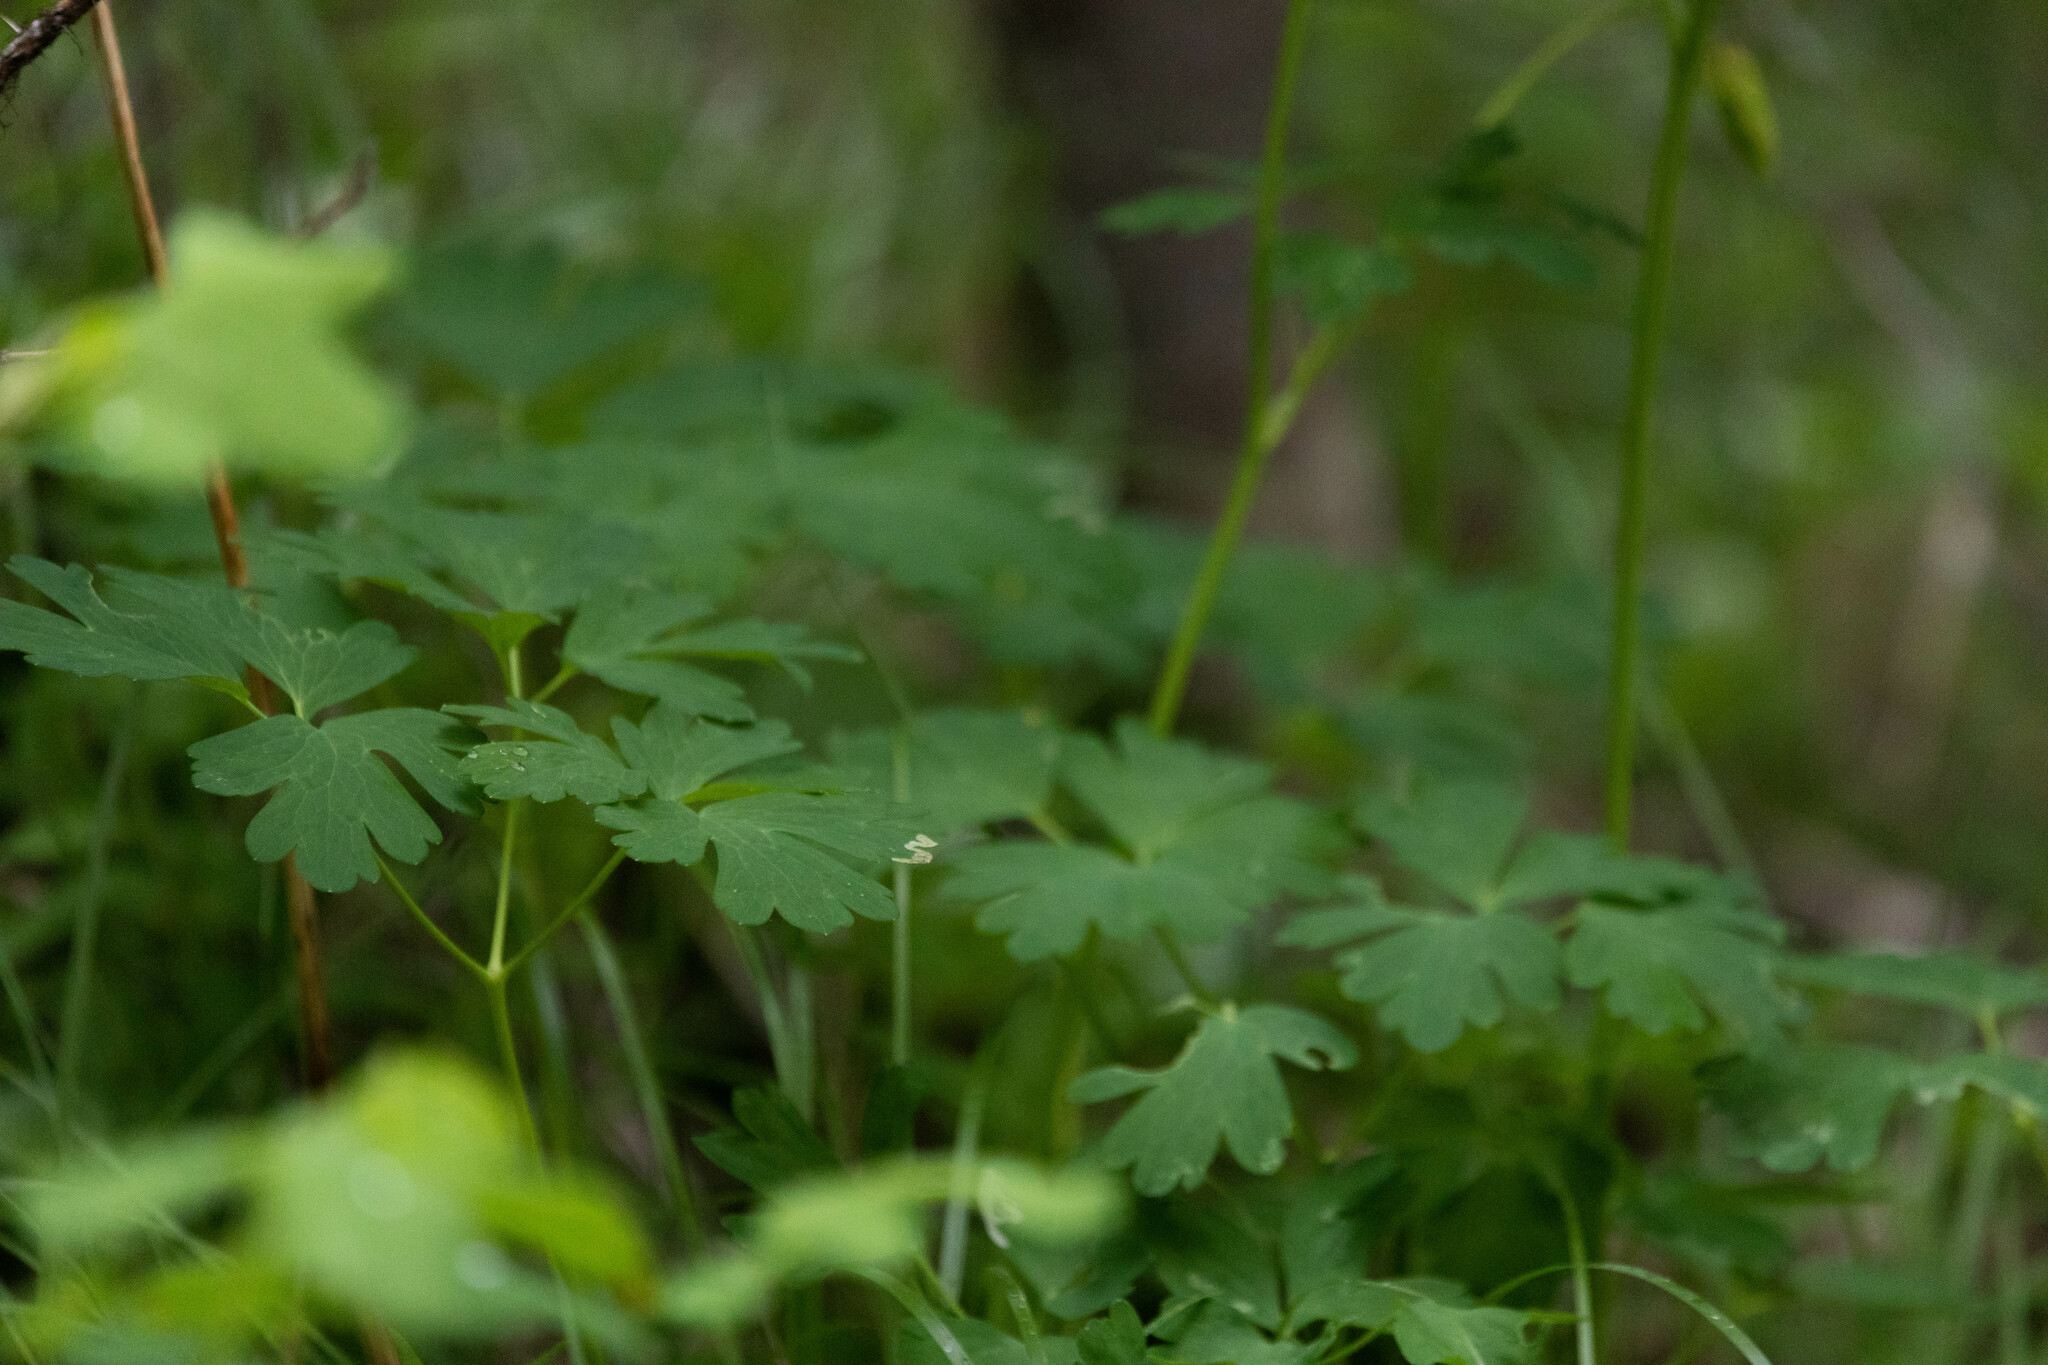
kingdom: Plantae
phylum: Tracheophyta
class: Magnoliopsida
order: Ranunculales
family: Ranunculaceae
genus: Aquilegia
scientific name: Aquilegia formosa
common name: Sitka columbine
